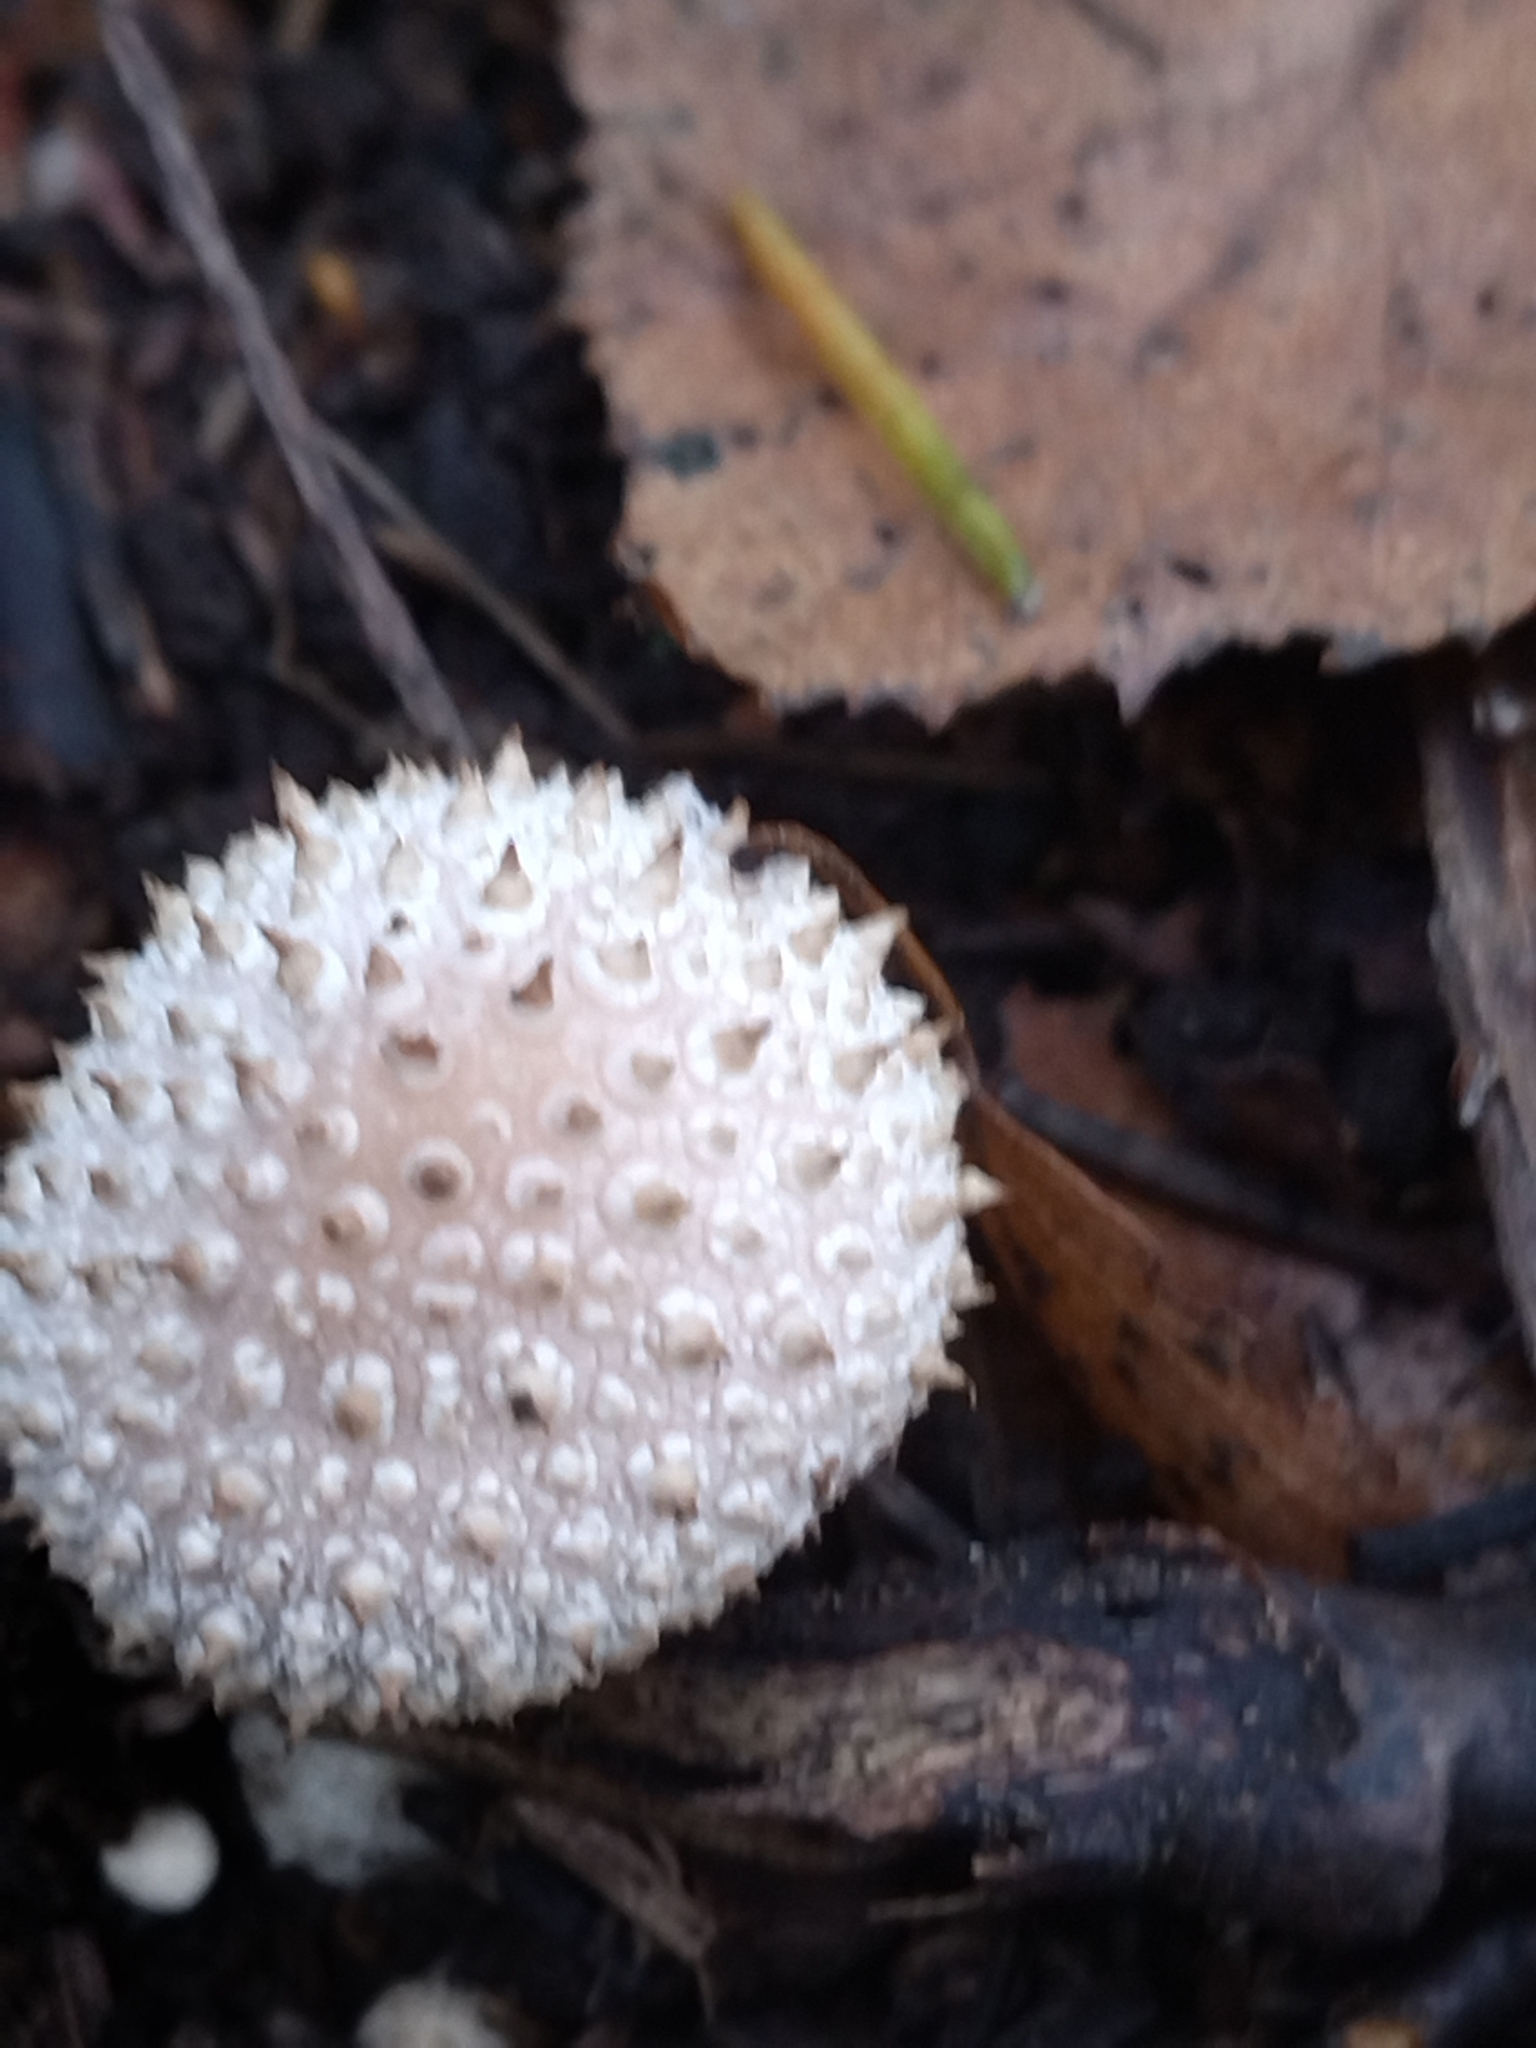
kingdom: Fungi
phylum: Basidiomycota
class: Agaricomycetes
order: Agaricales
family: Lycoperdaceae
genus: Lycoperdon
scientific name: Lycoperdon perlatum
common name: Common puffball
